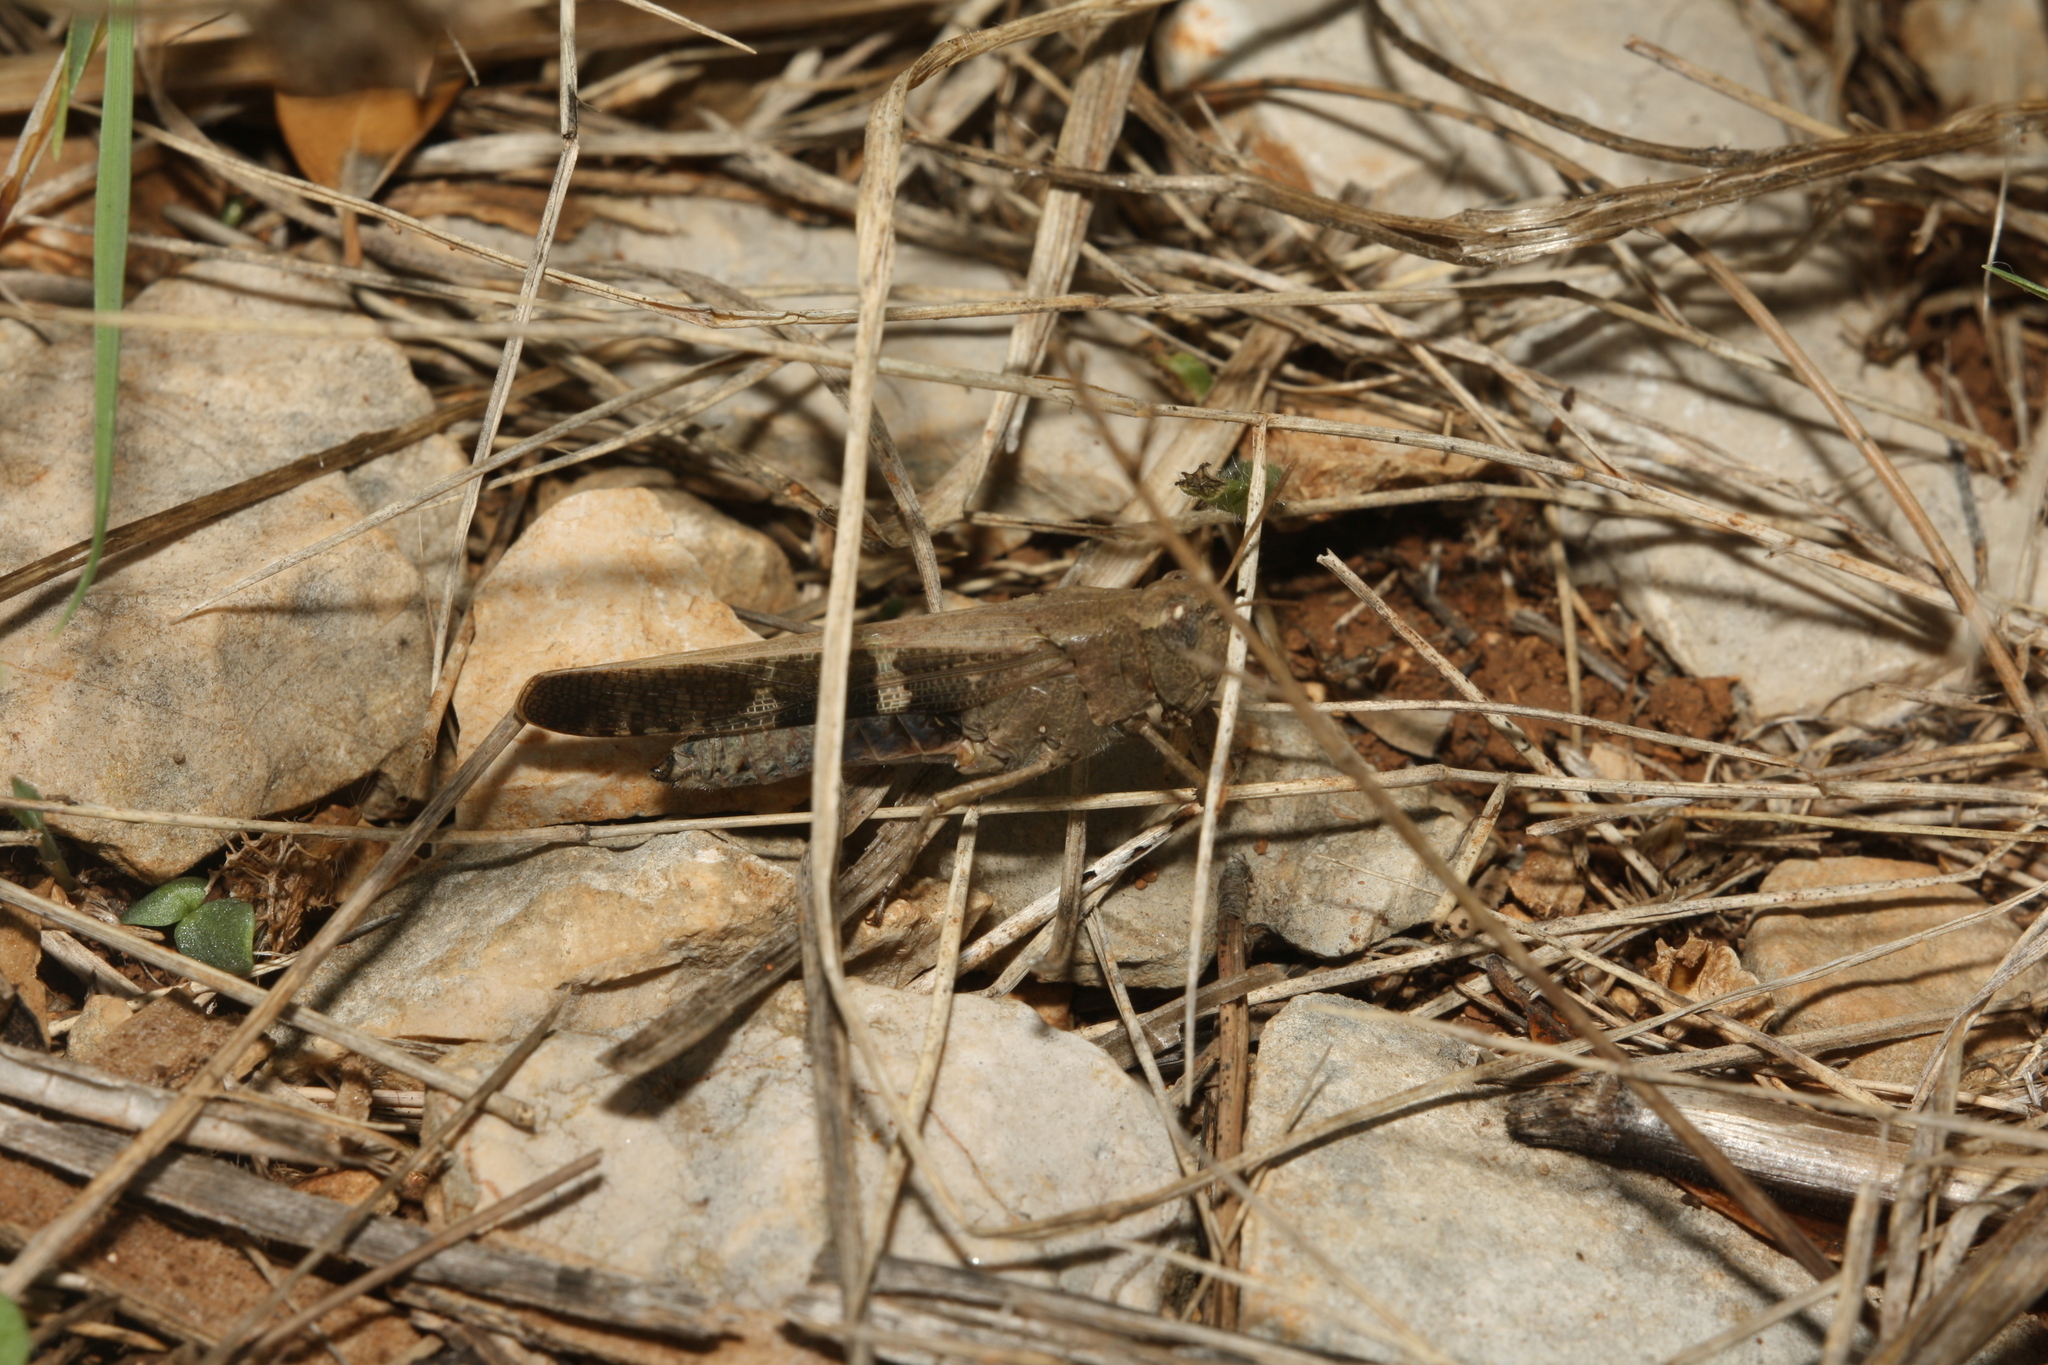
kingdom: Animalia
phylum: Arthropoda
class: Insecta
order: Orthoptera
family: Acrididae
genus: Aiolopus
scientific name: Aiolopus strepens
